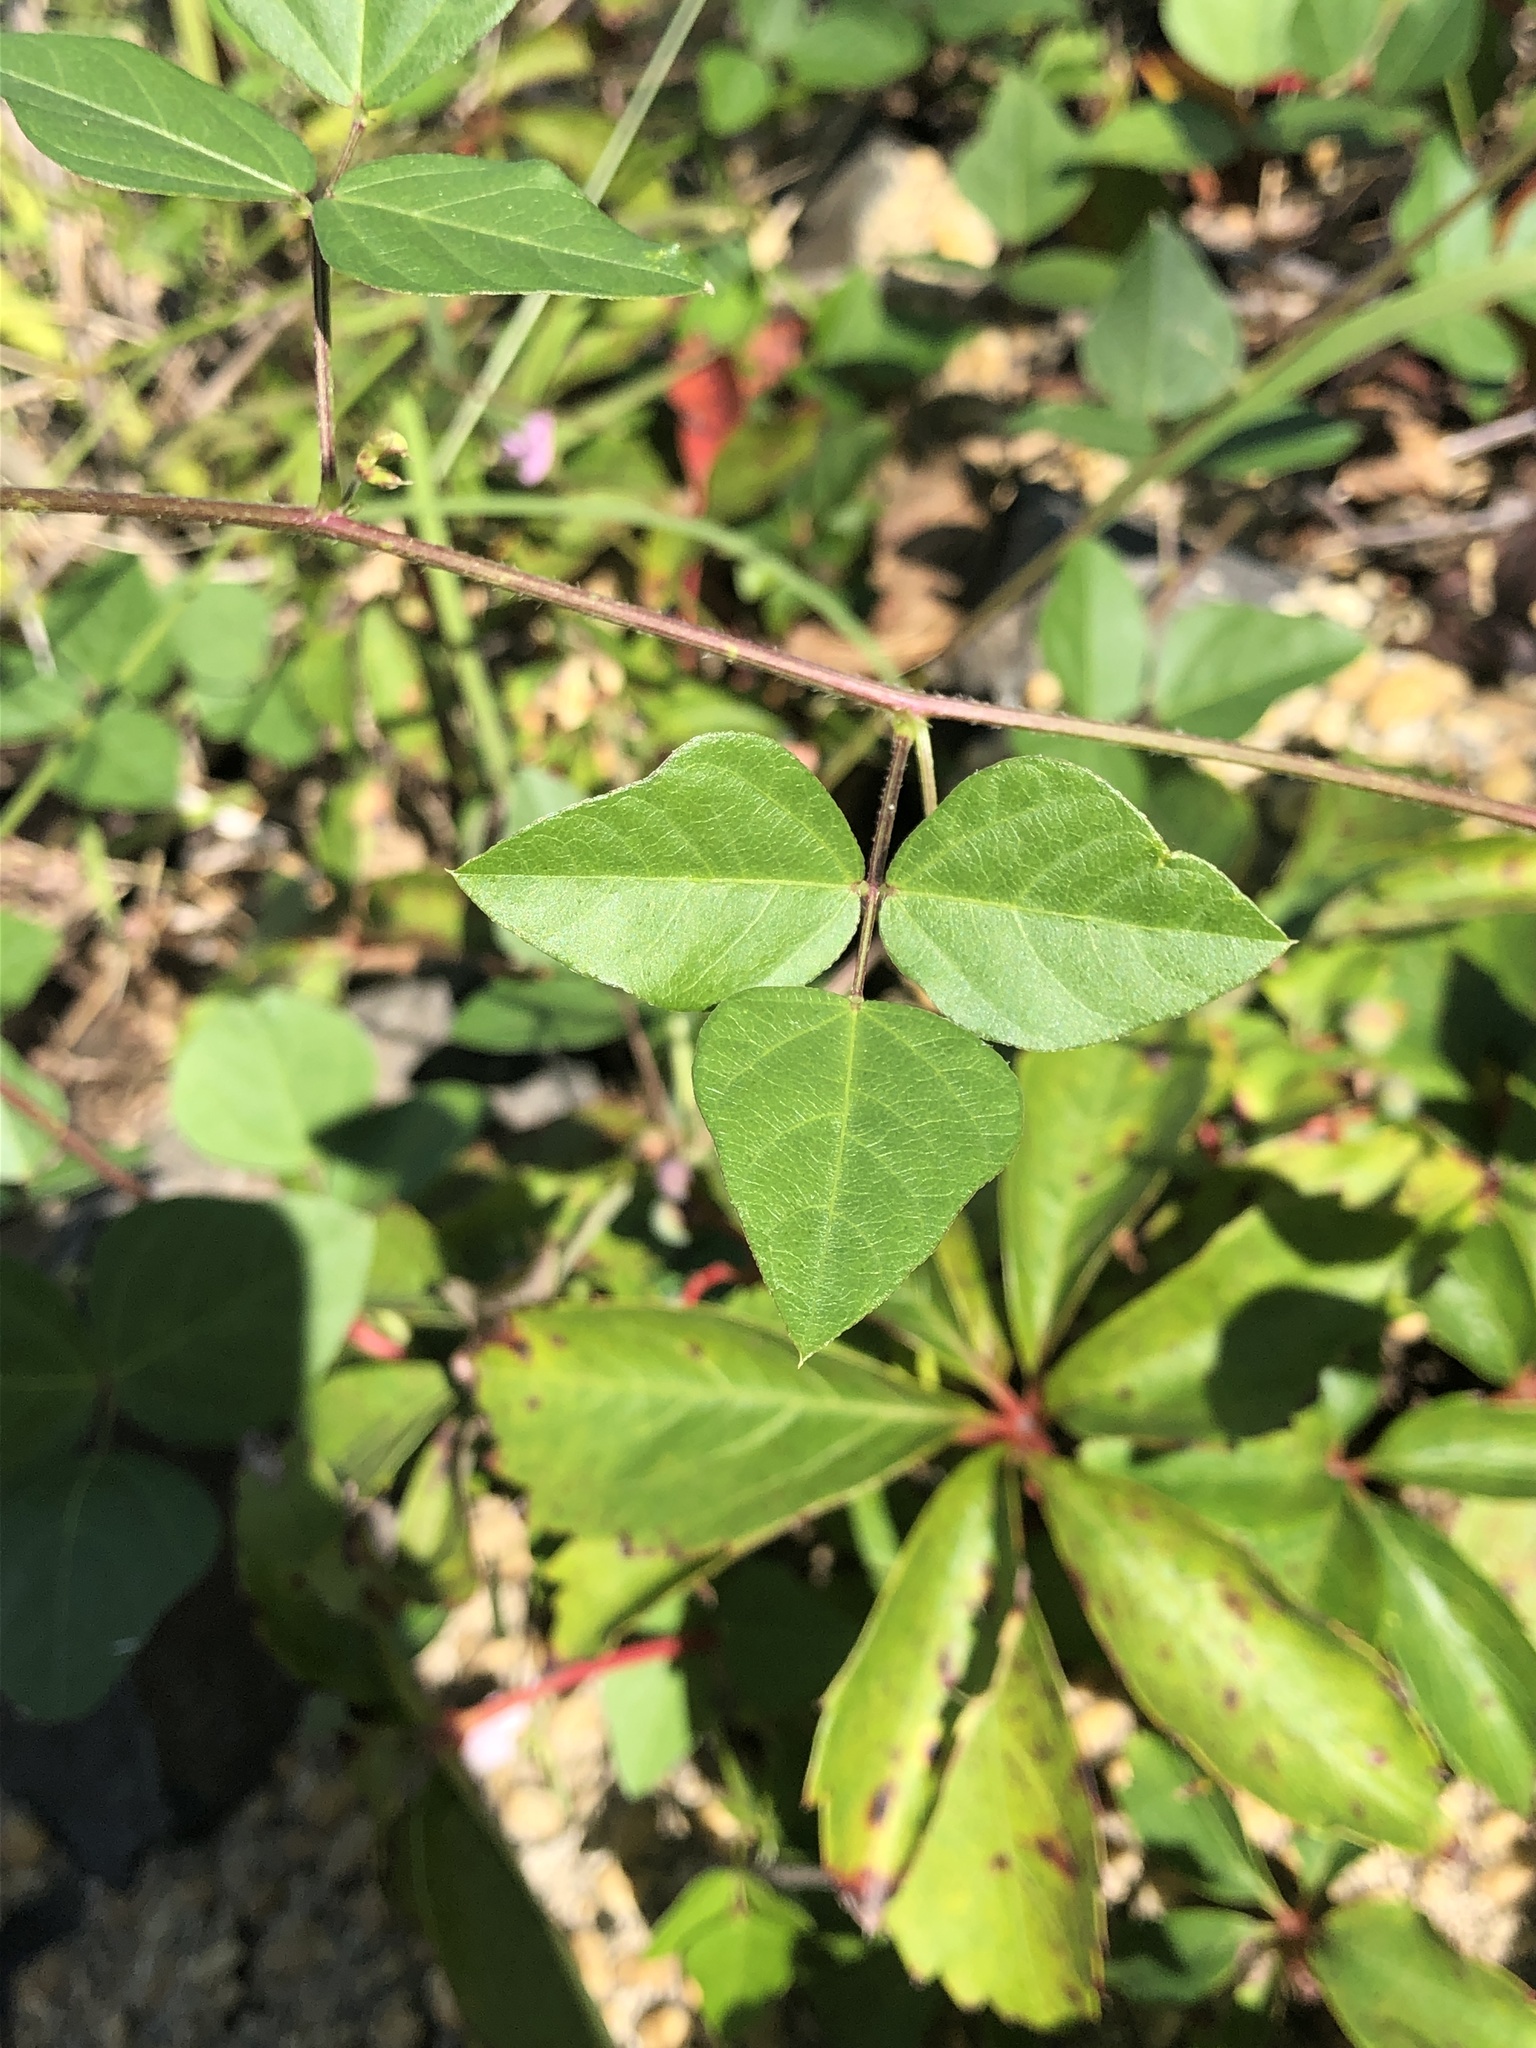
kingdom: Plantae
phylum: Tracheophyta
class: Magnoliopsida
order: Fabales
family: Fabaceae
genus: Strophostyles
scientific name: Strophostyles helvola
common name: Trailing wild bean
